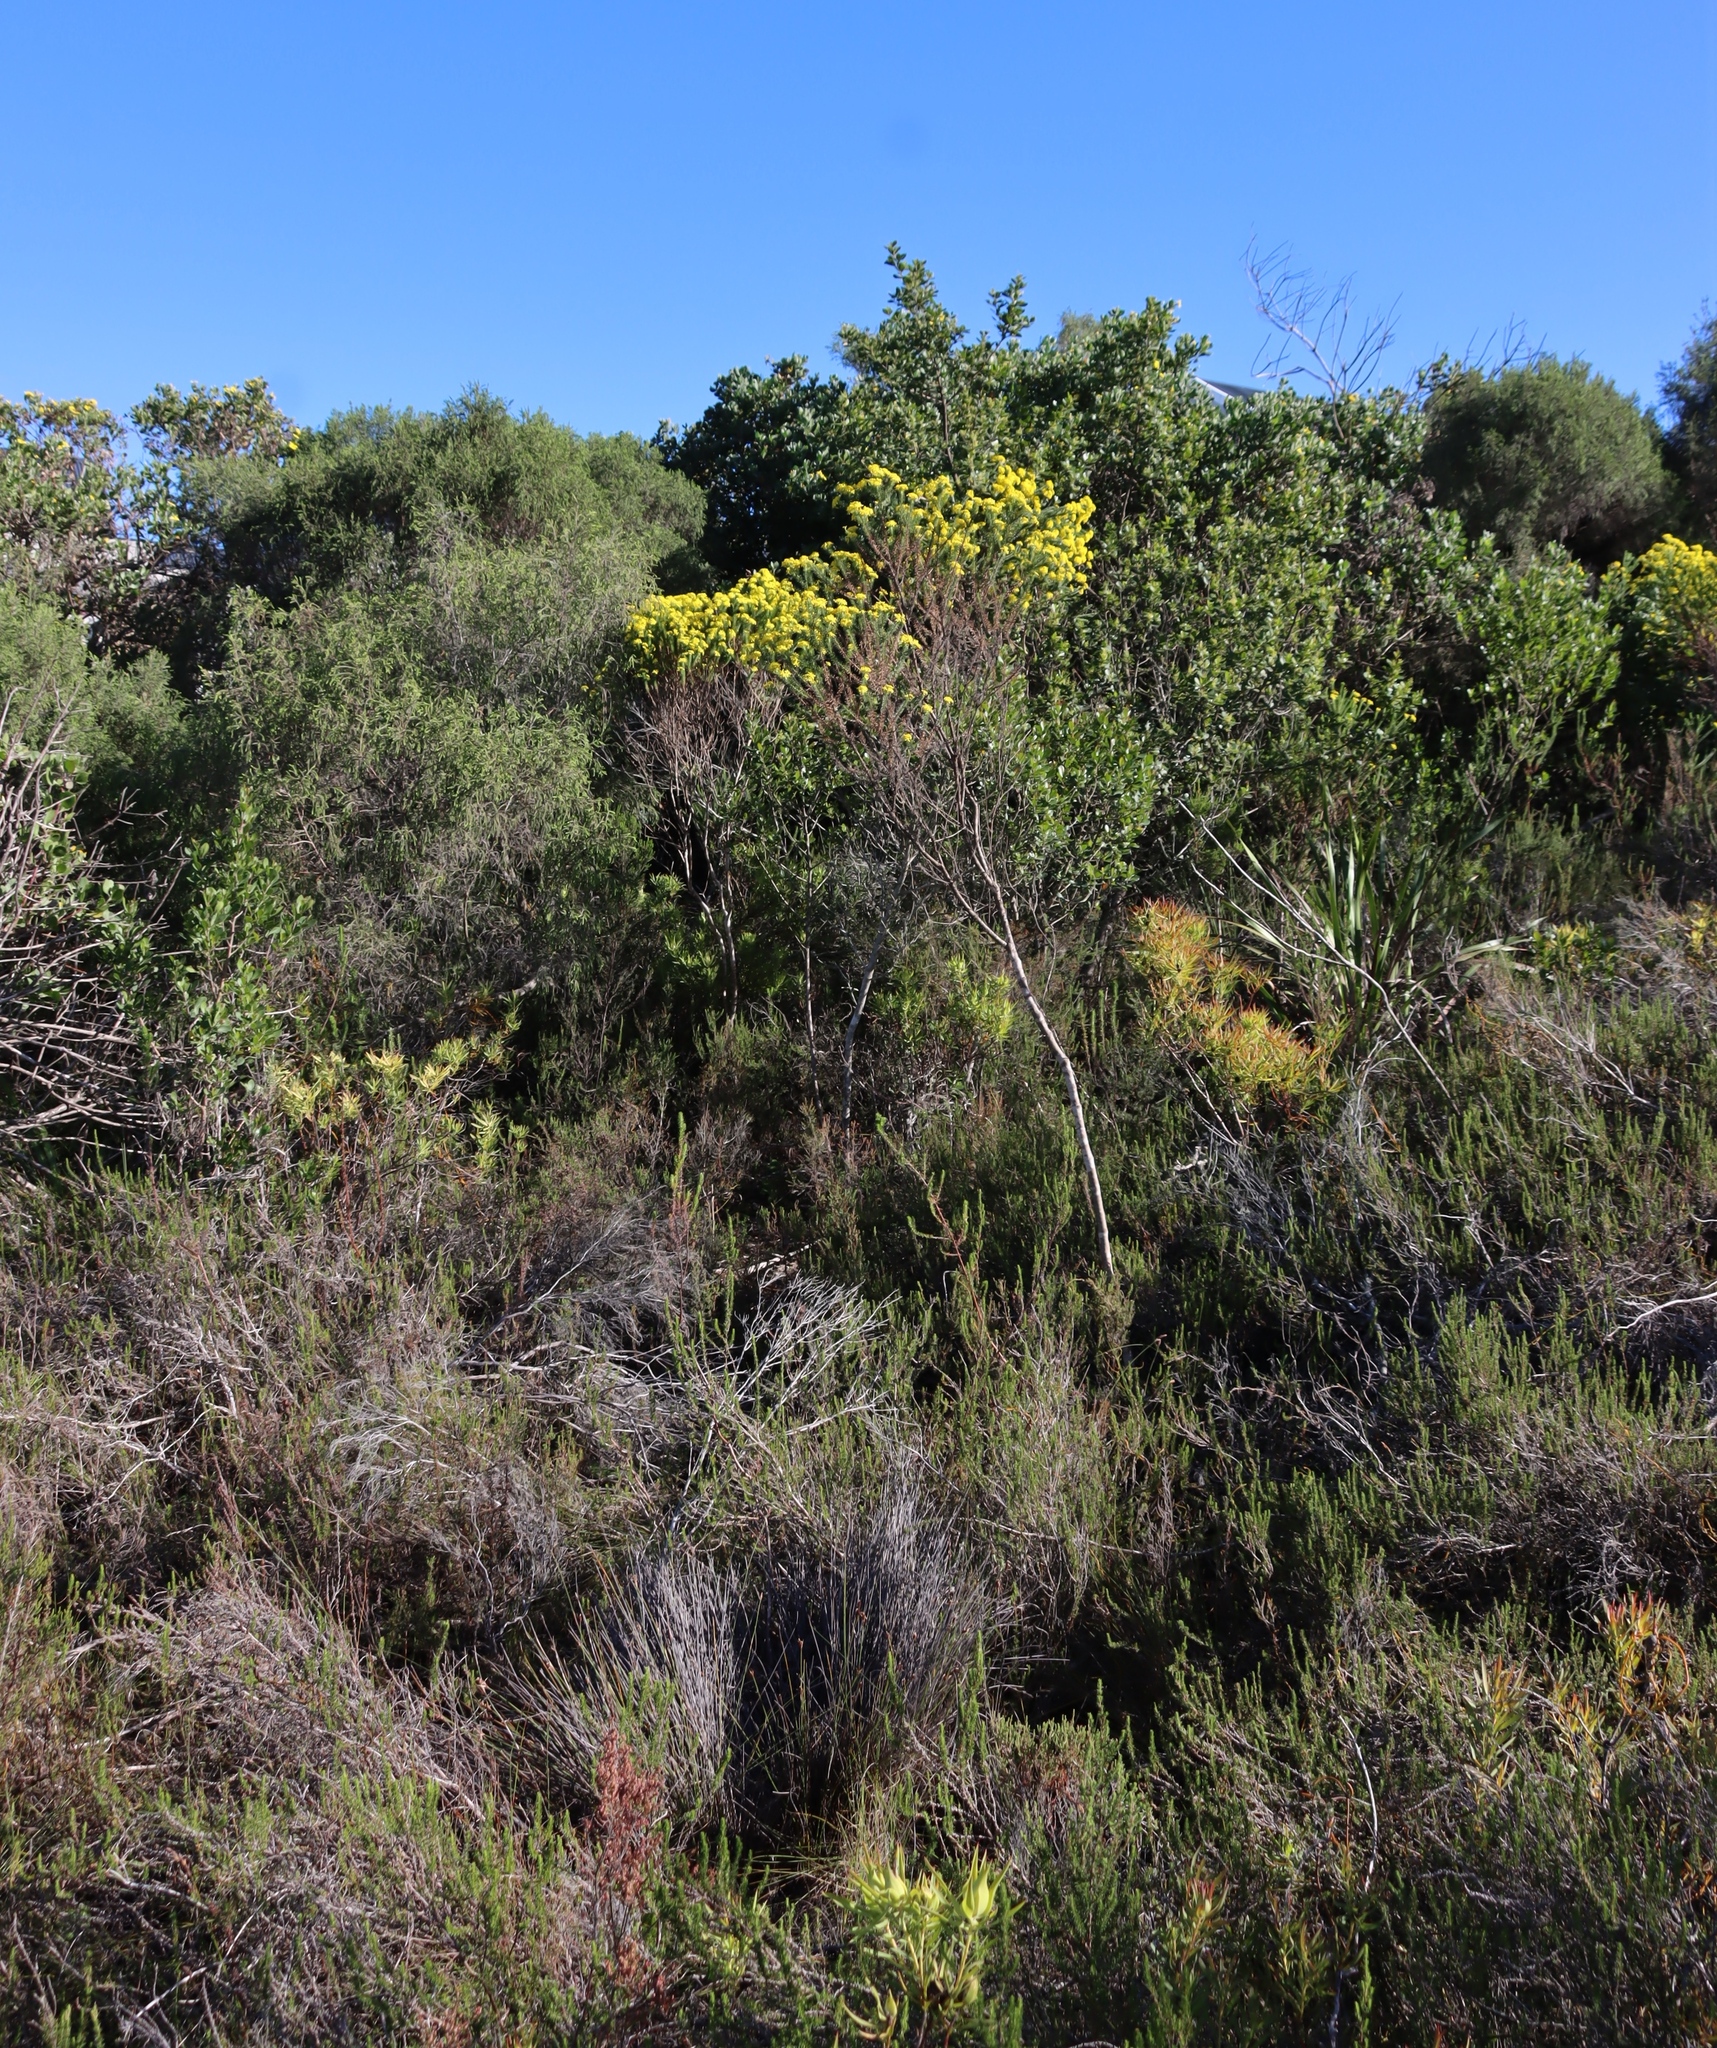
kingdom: Plantae
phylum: Tracheophyta
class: Magnoliopsida
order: Asterales
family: Asteraceae
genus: Euryops
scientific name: Euryops virgineus
